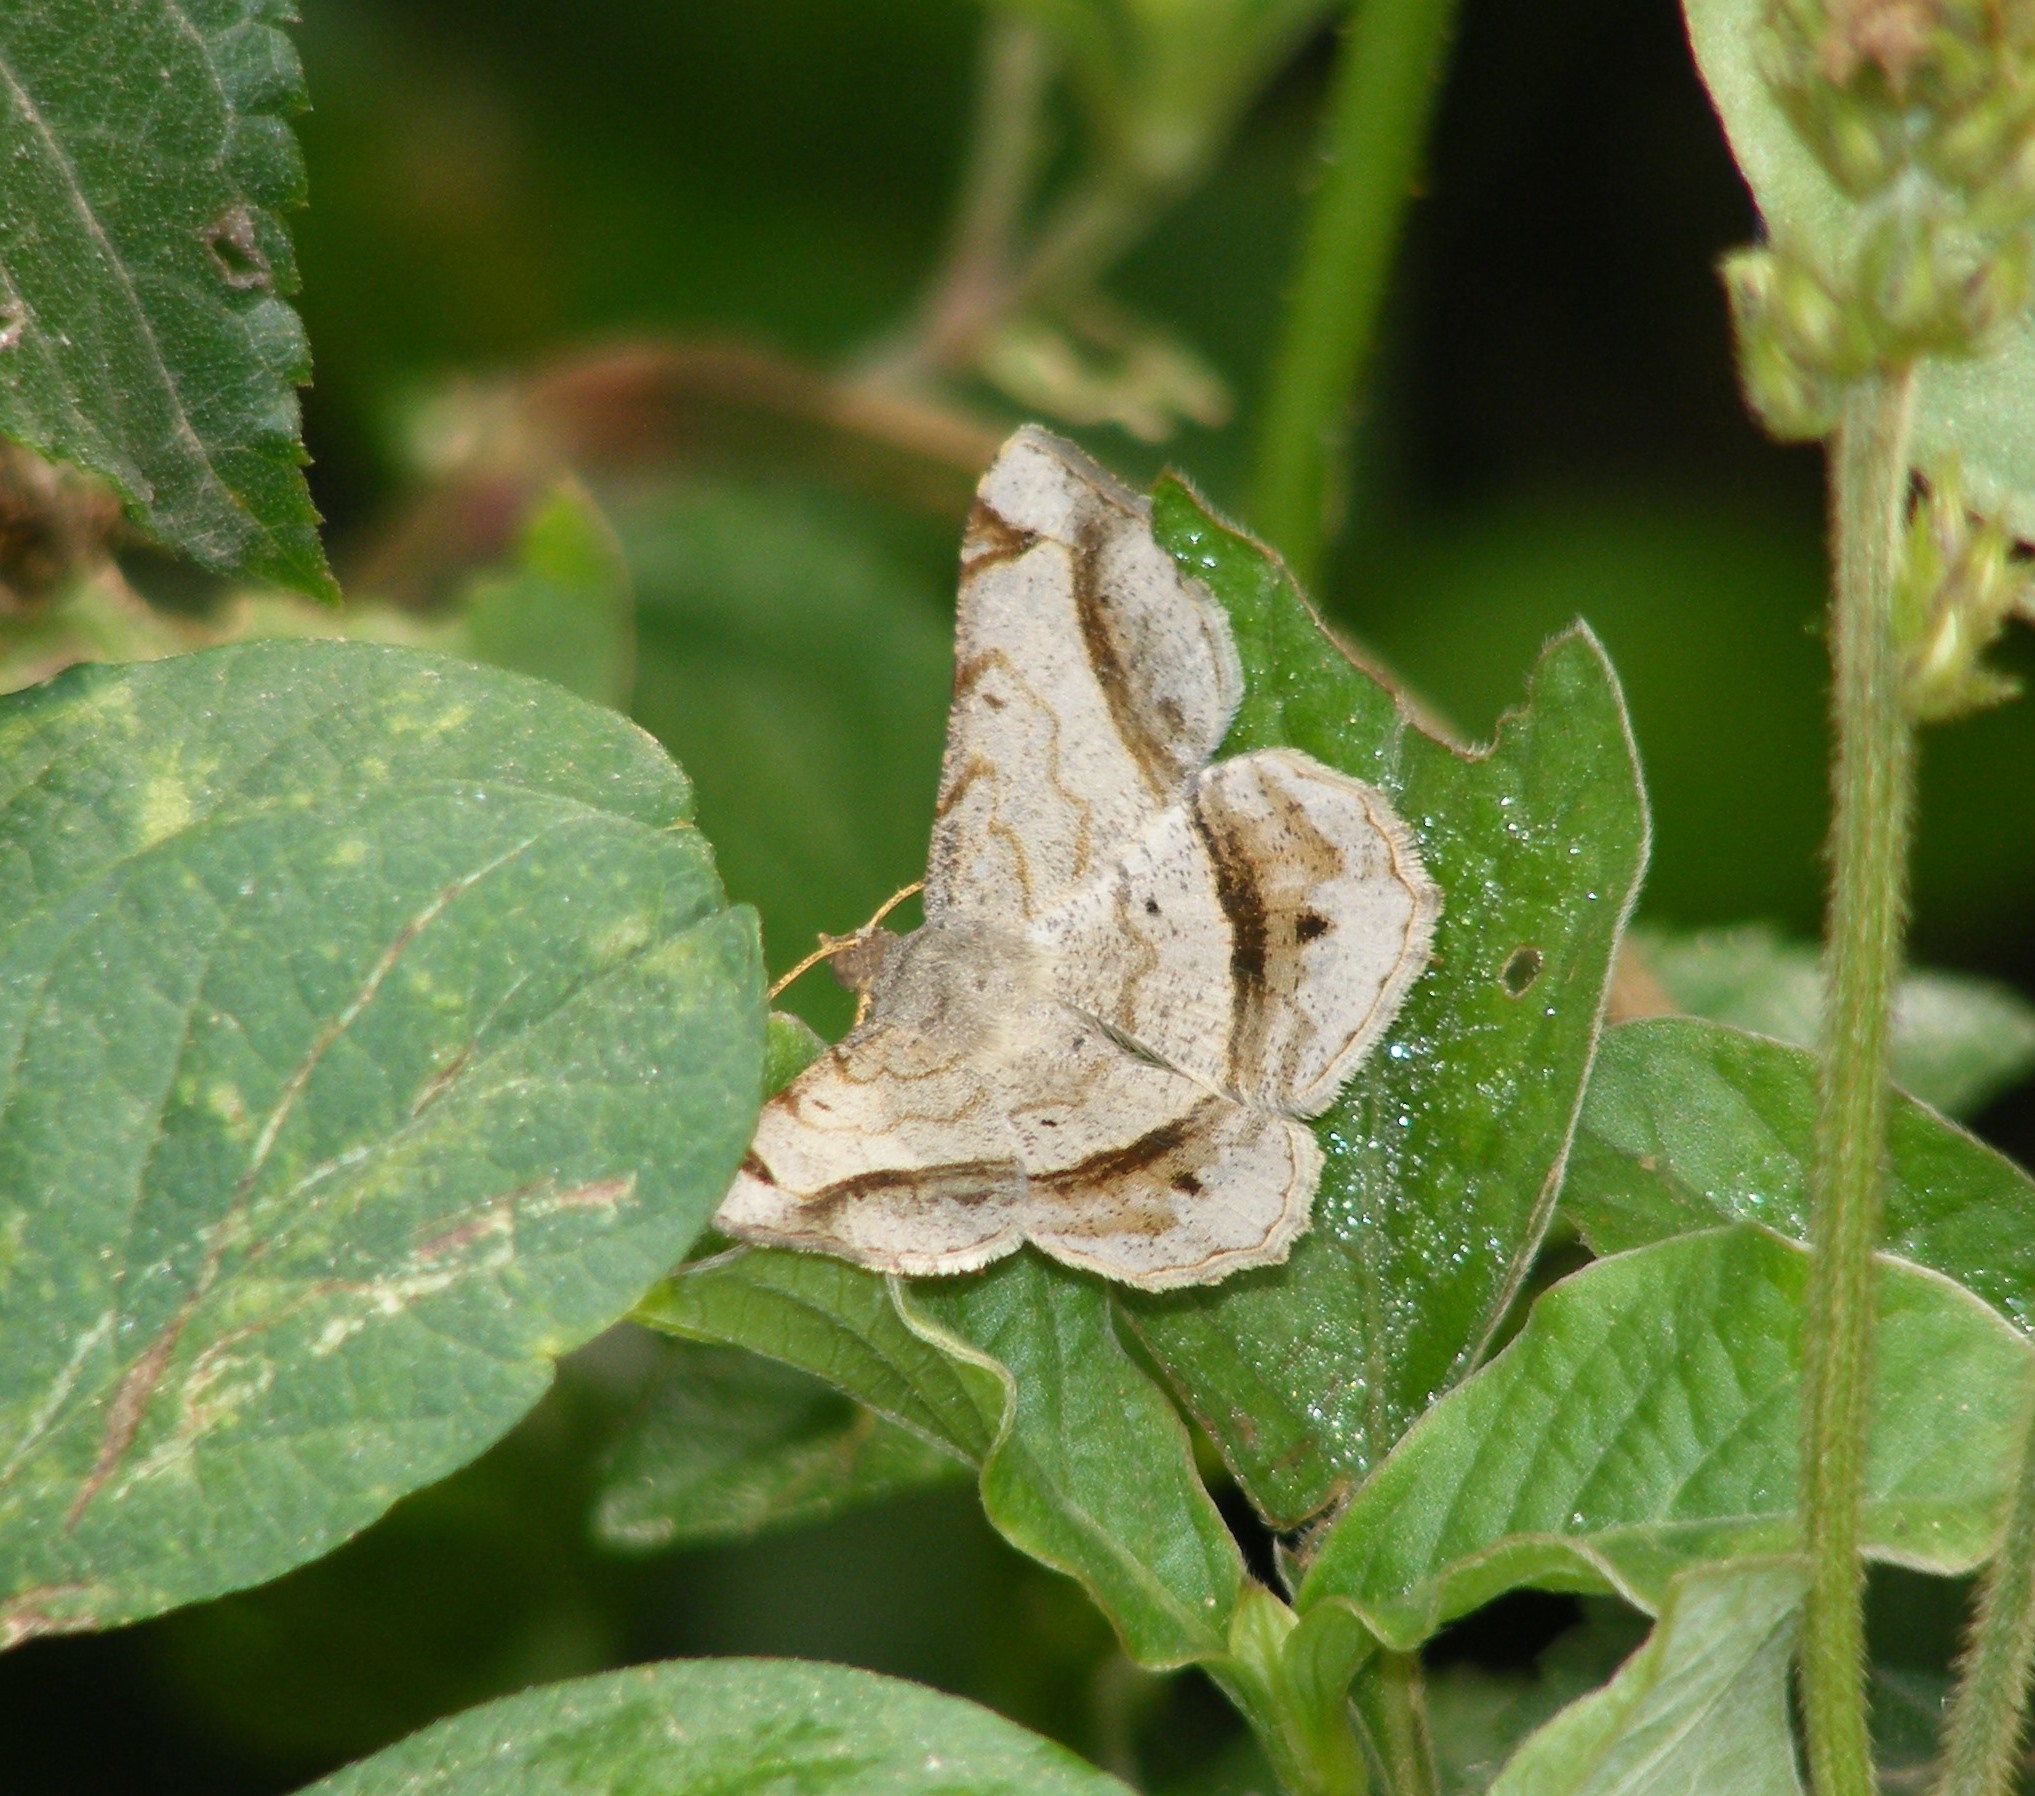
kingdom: Animalia
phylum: Arthropoda
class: Insecta
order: Lepidoptera
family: Geometridae
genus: Chiasmia
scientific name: Chiasmia emersaria
